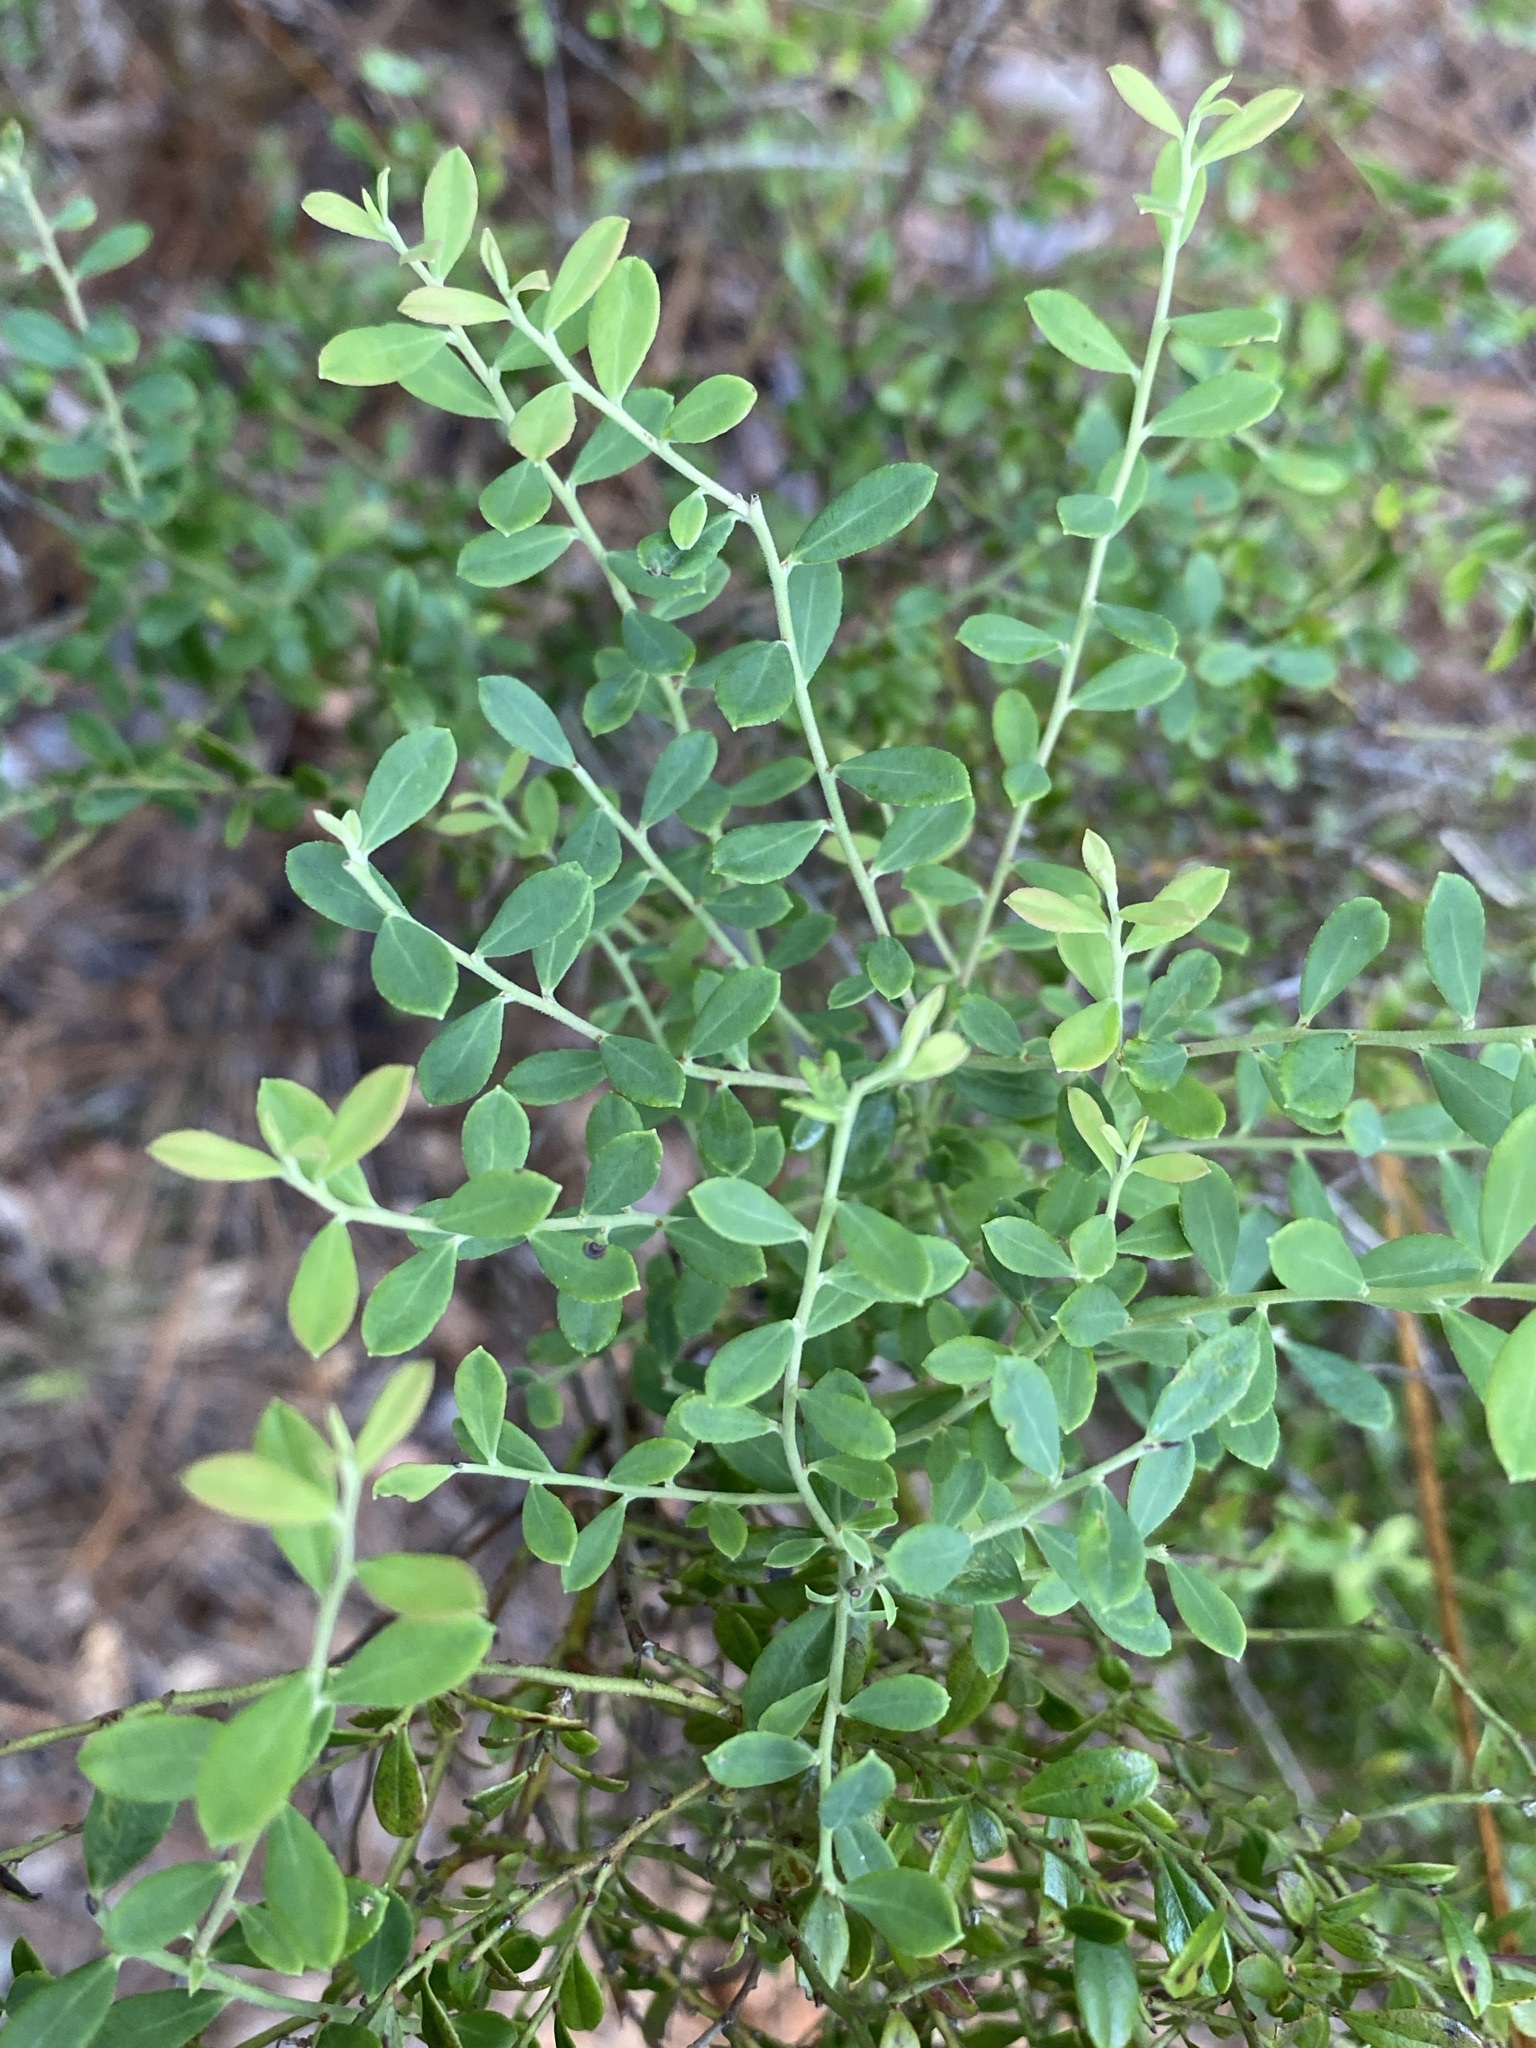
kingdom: Plantae
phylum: Tracheophyta
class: Magnoliopsida
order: Ericales
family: Ericaceae
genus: Vaccinium
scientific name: Vaccinium darrowii
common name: Darrow's blueberry
